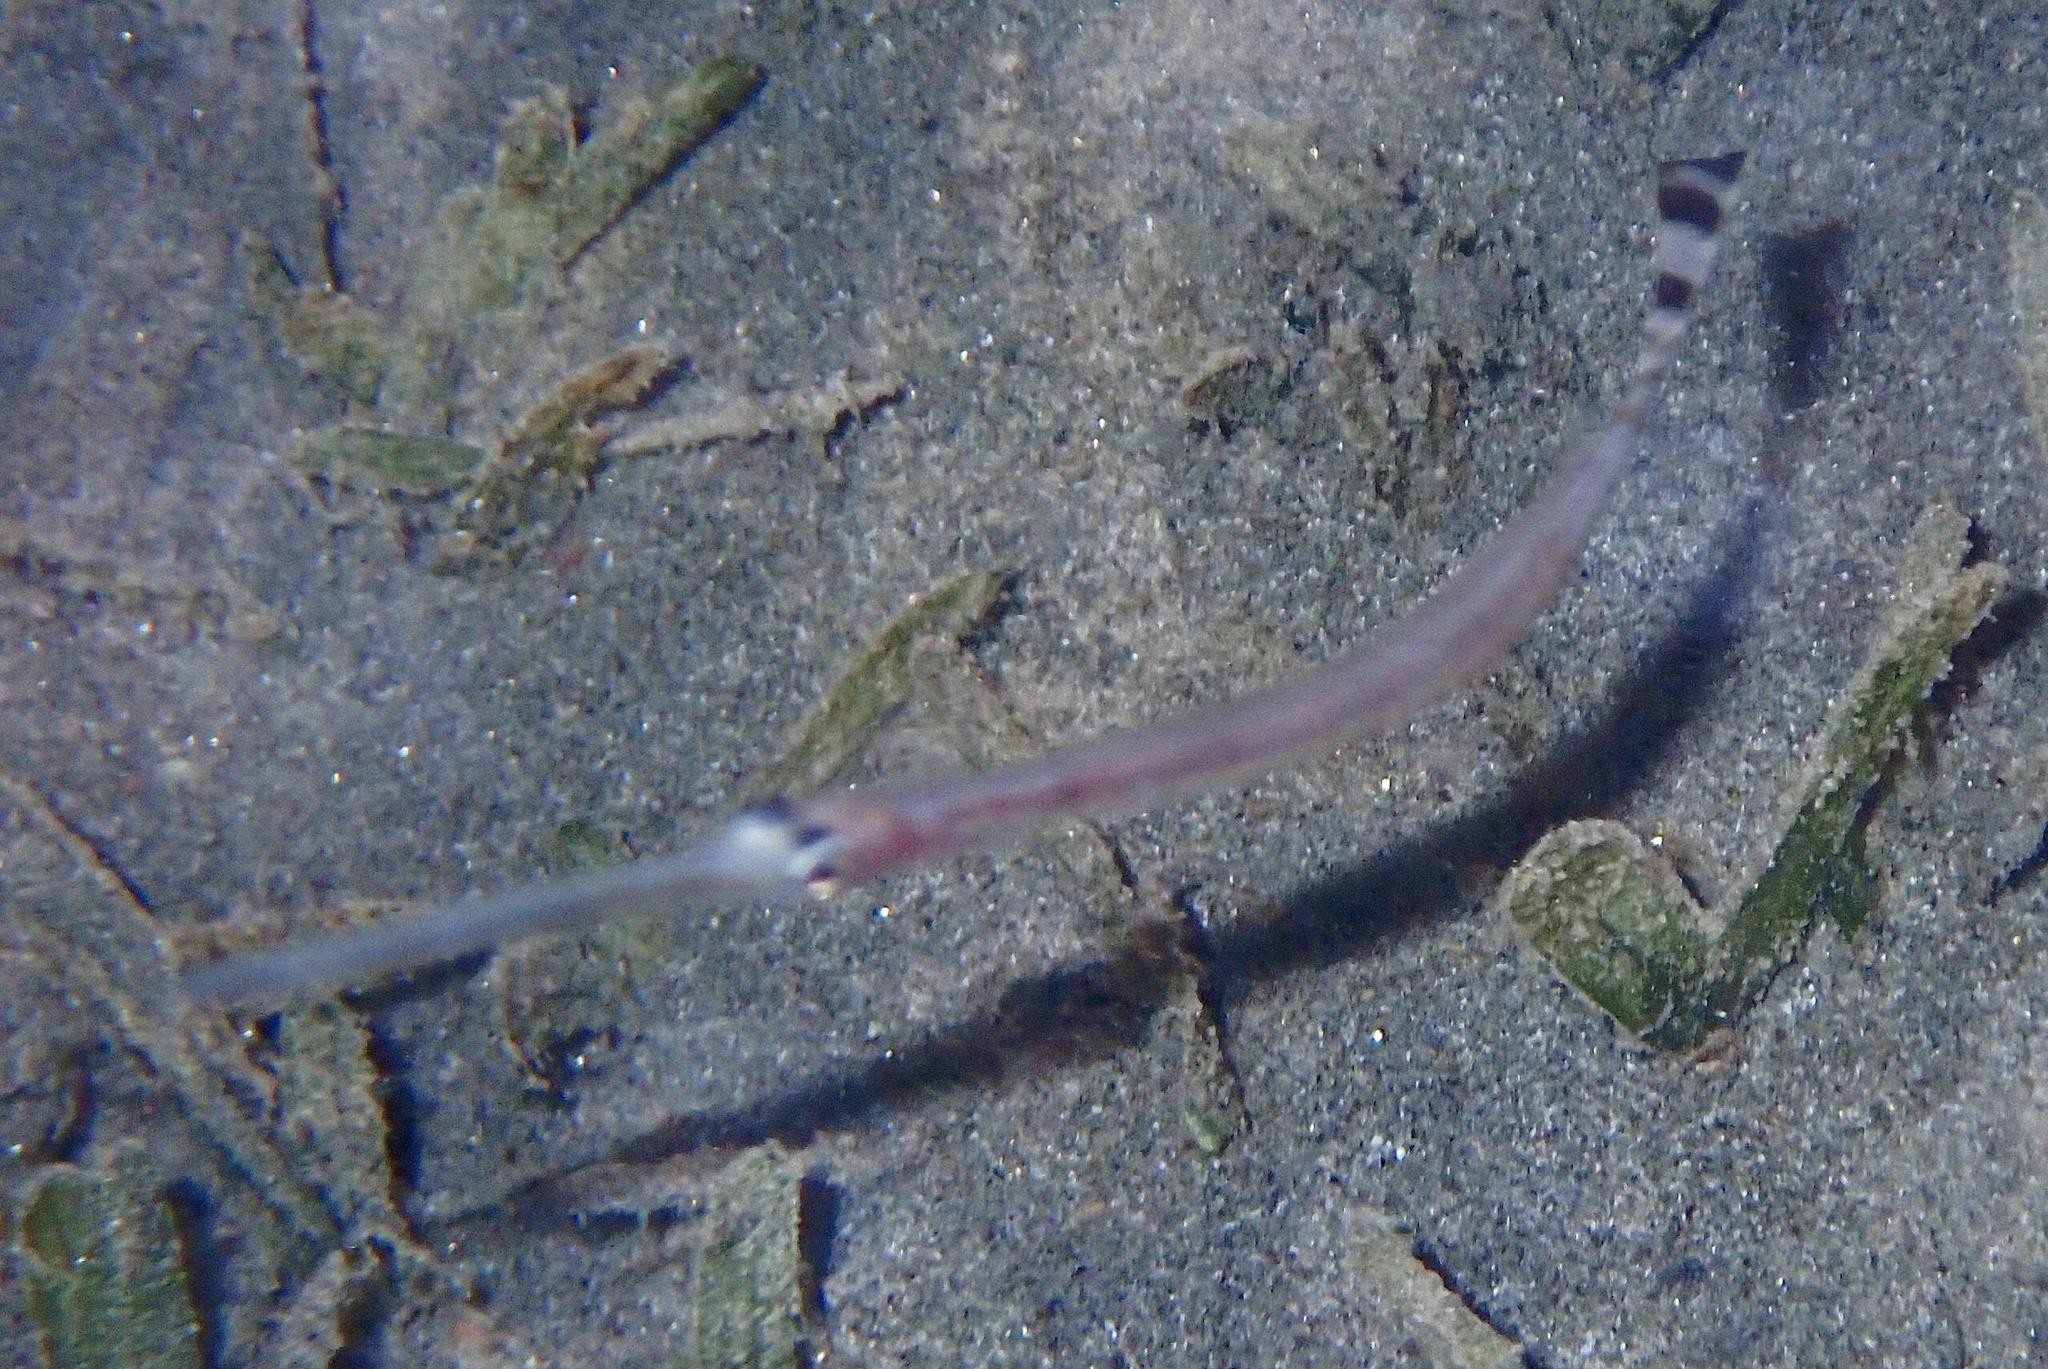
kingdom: Animalia
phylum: Chordata
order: Syngnathiformes
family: Fistulariidae
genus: Fistularia
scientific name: Fistularia
